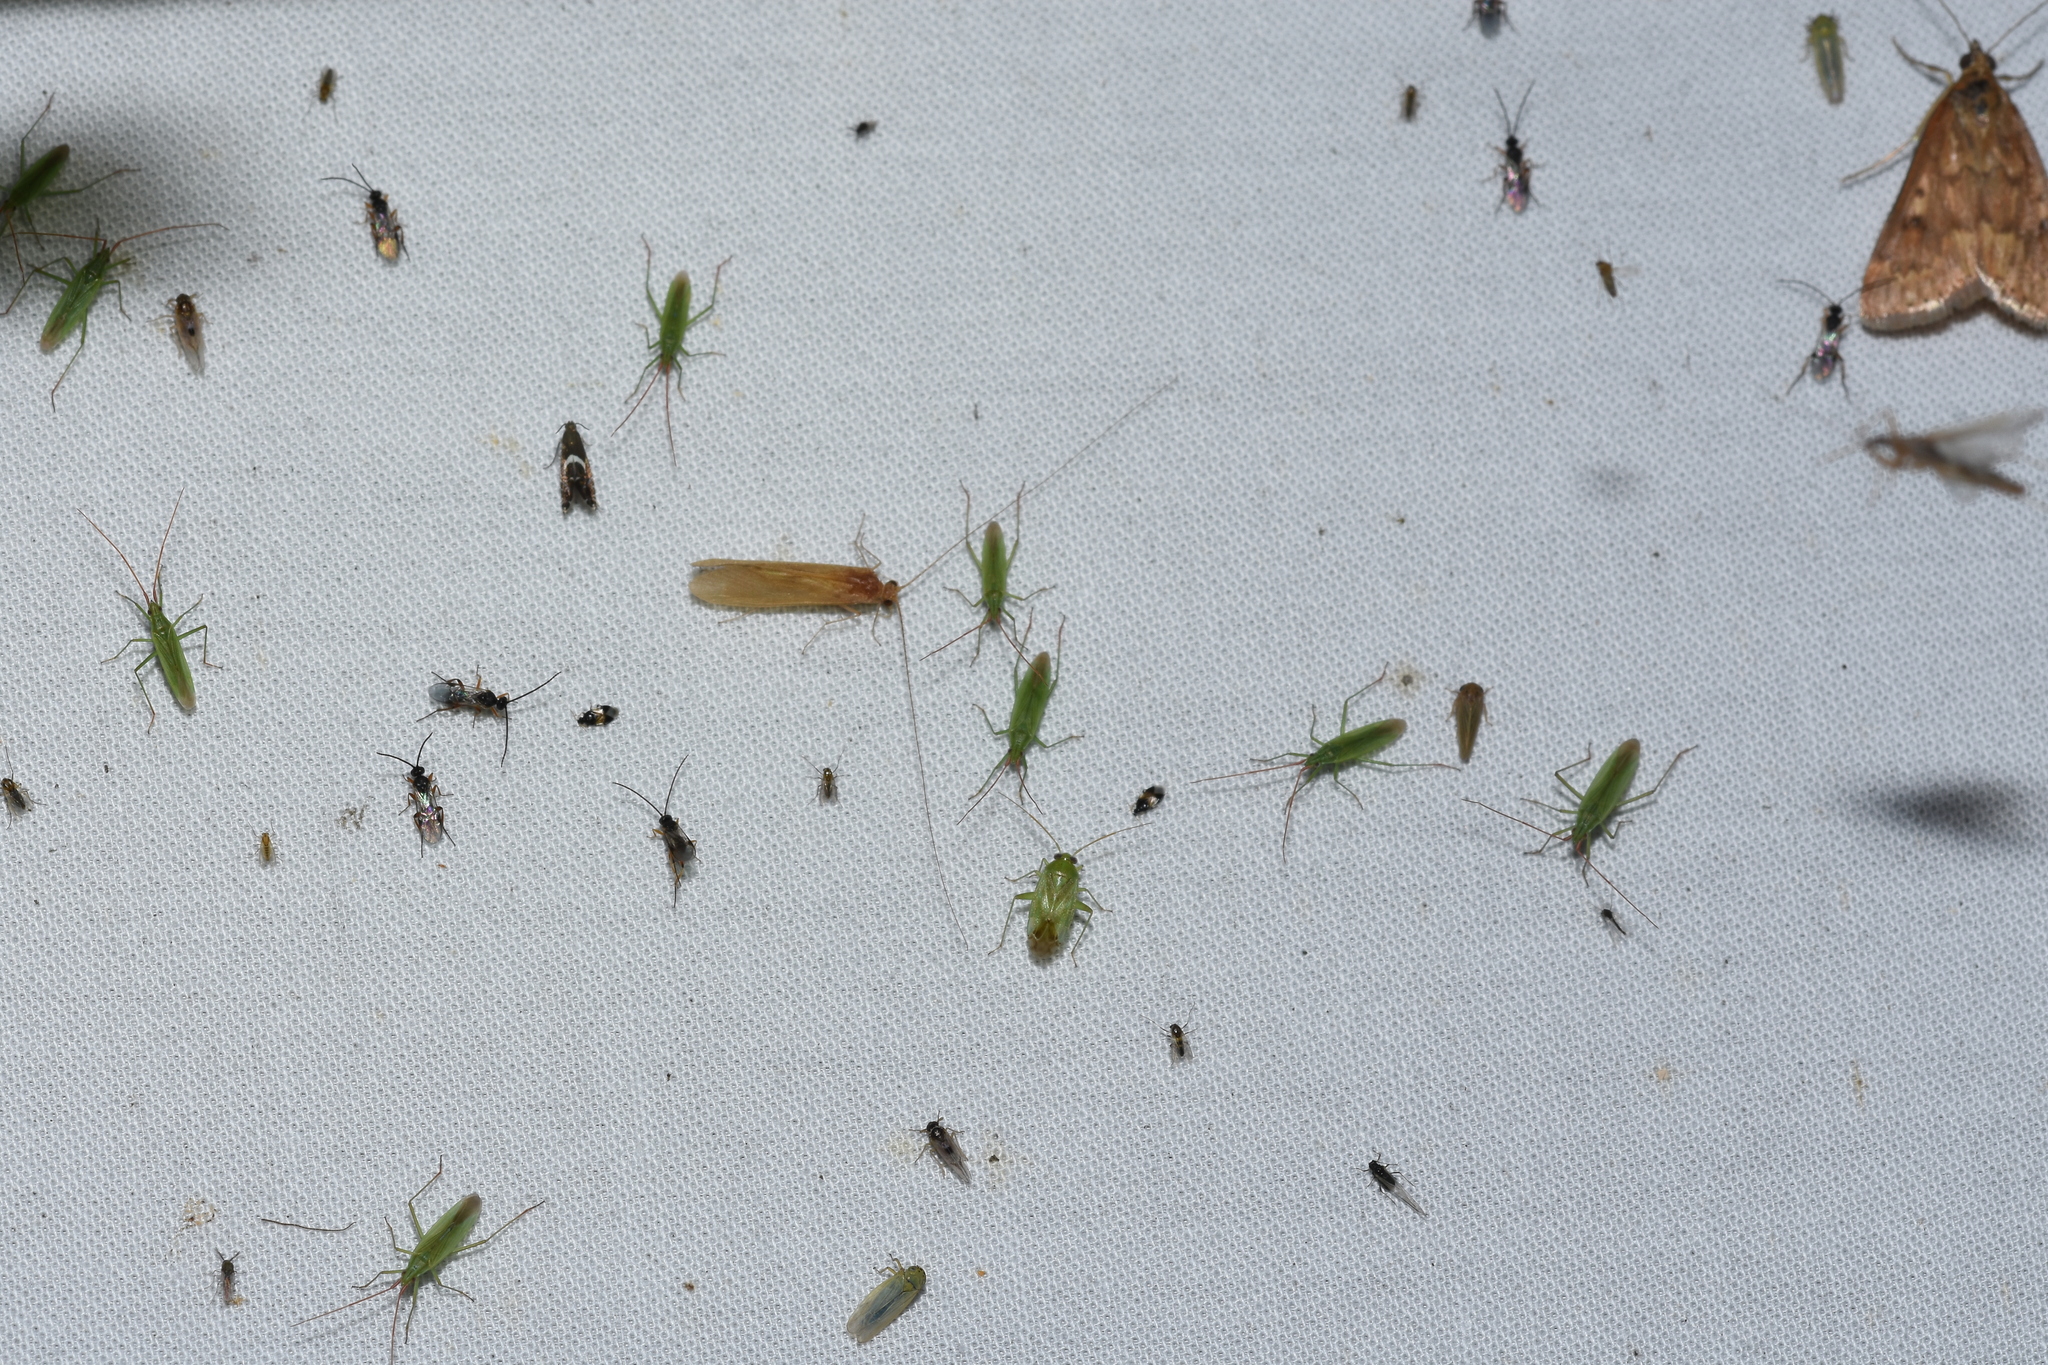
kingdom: Animalia
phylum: Arthropoda
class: Insecta
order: Trichoptera
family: Hydropsychidae
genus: Potamyia
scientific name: Potamyia flava
